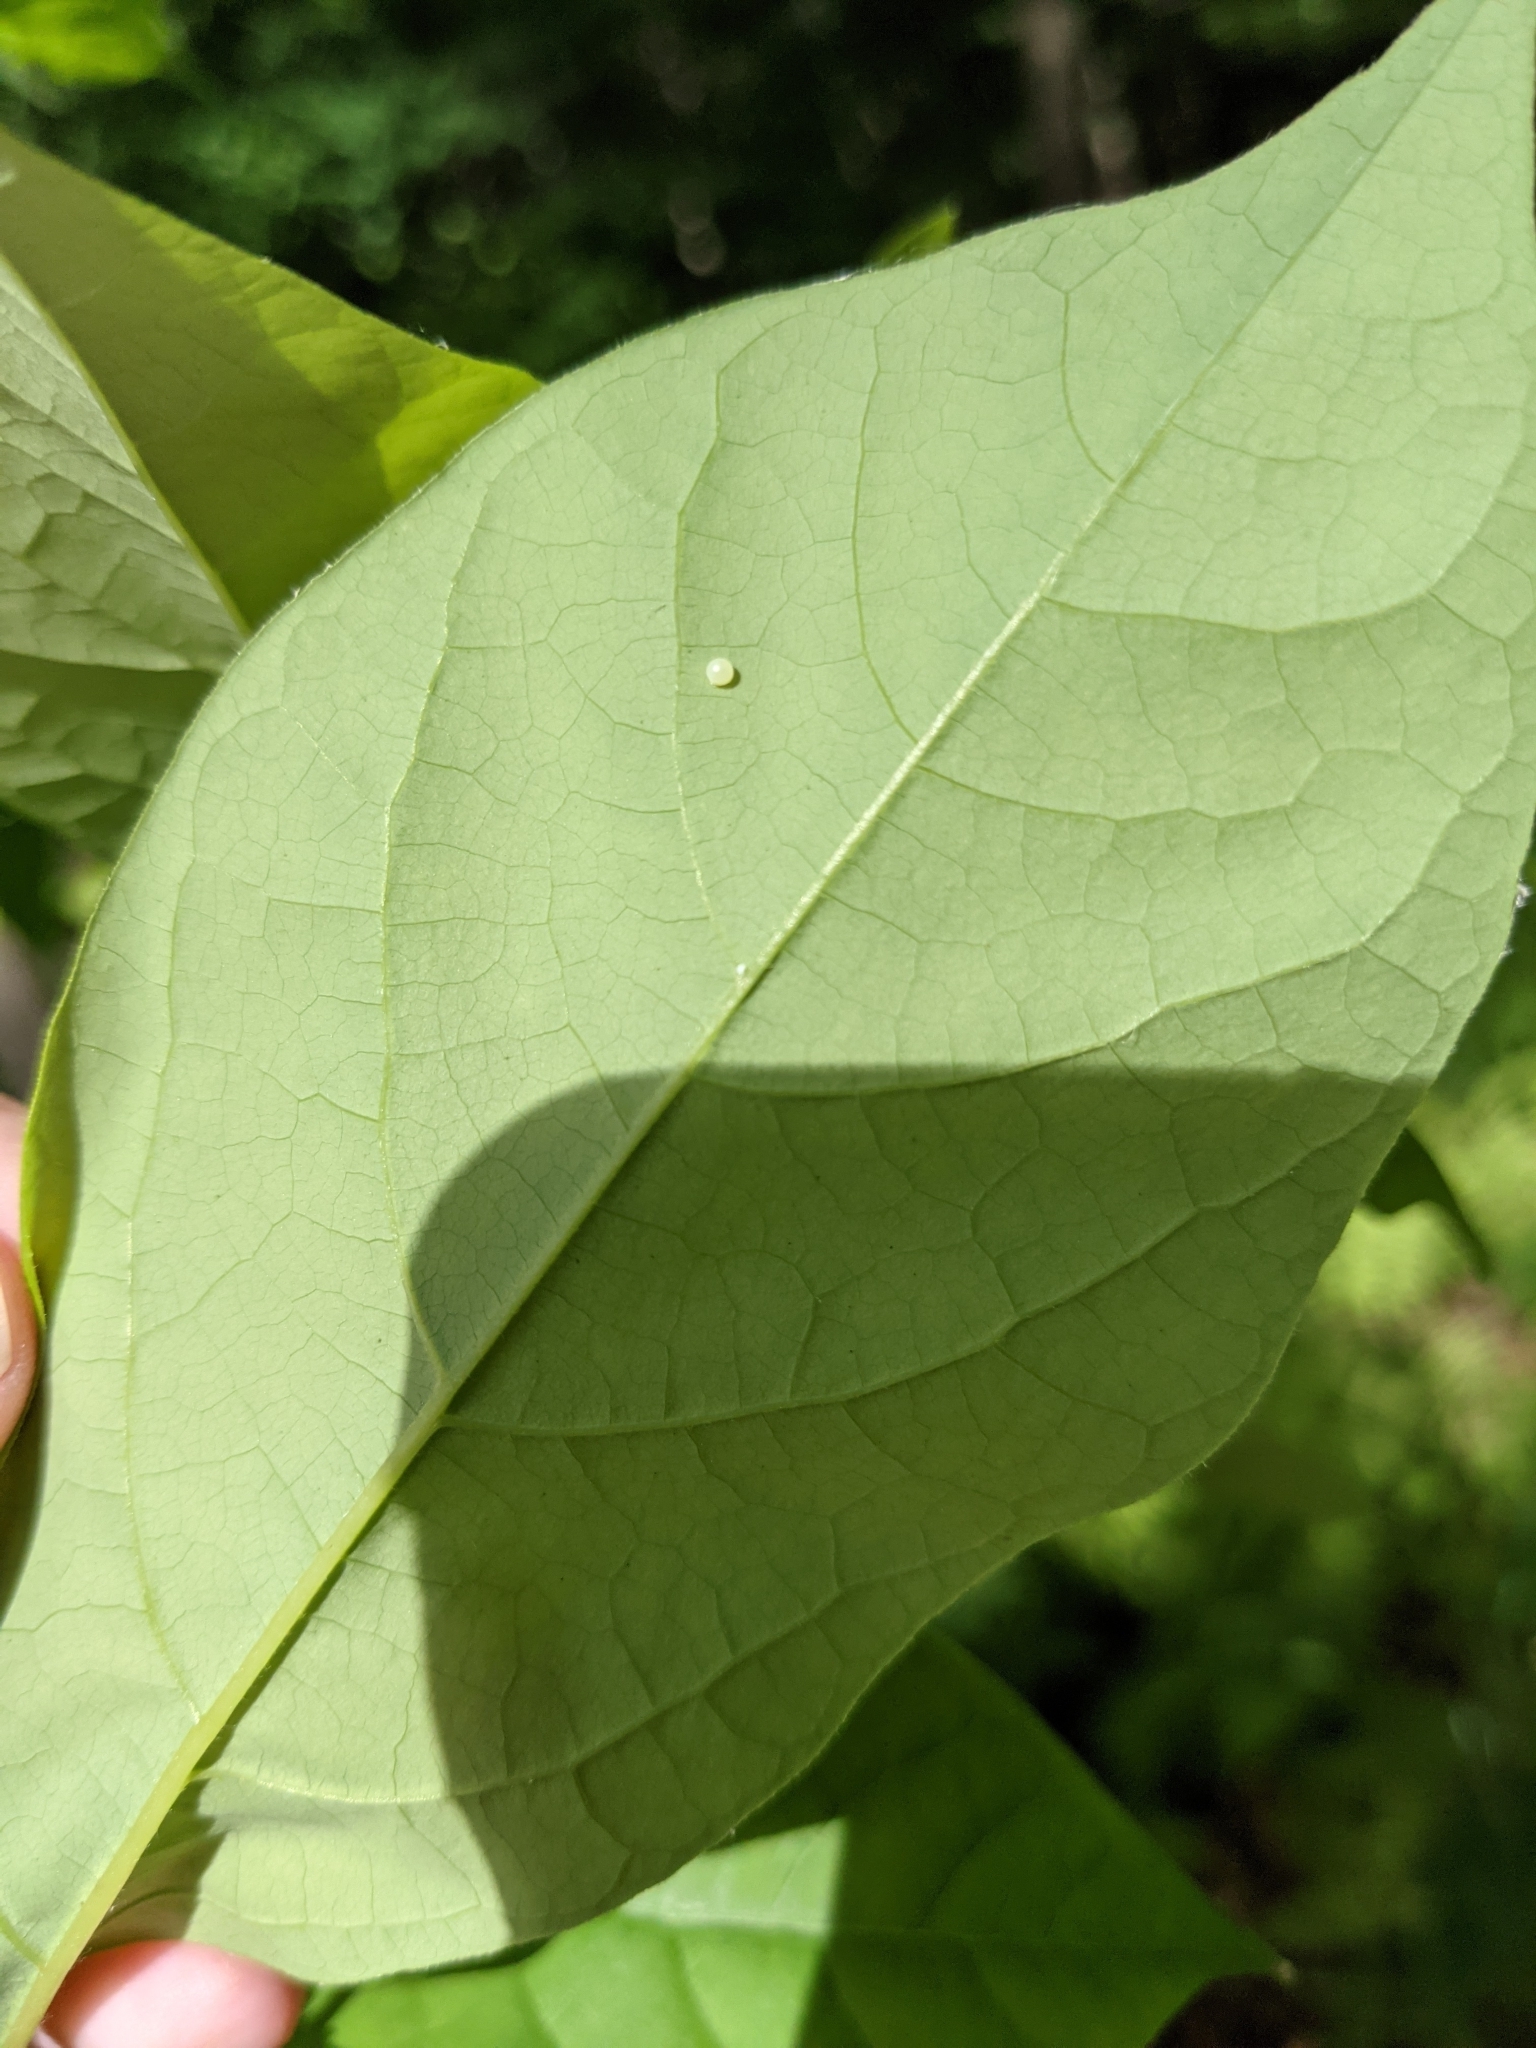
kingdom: Animalia
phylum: Arthropoda
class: Insecta
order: Lepidoptera
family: Papilionidae
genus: Papilio
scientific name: Papilio troilus
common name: Spicebush swallowtail
